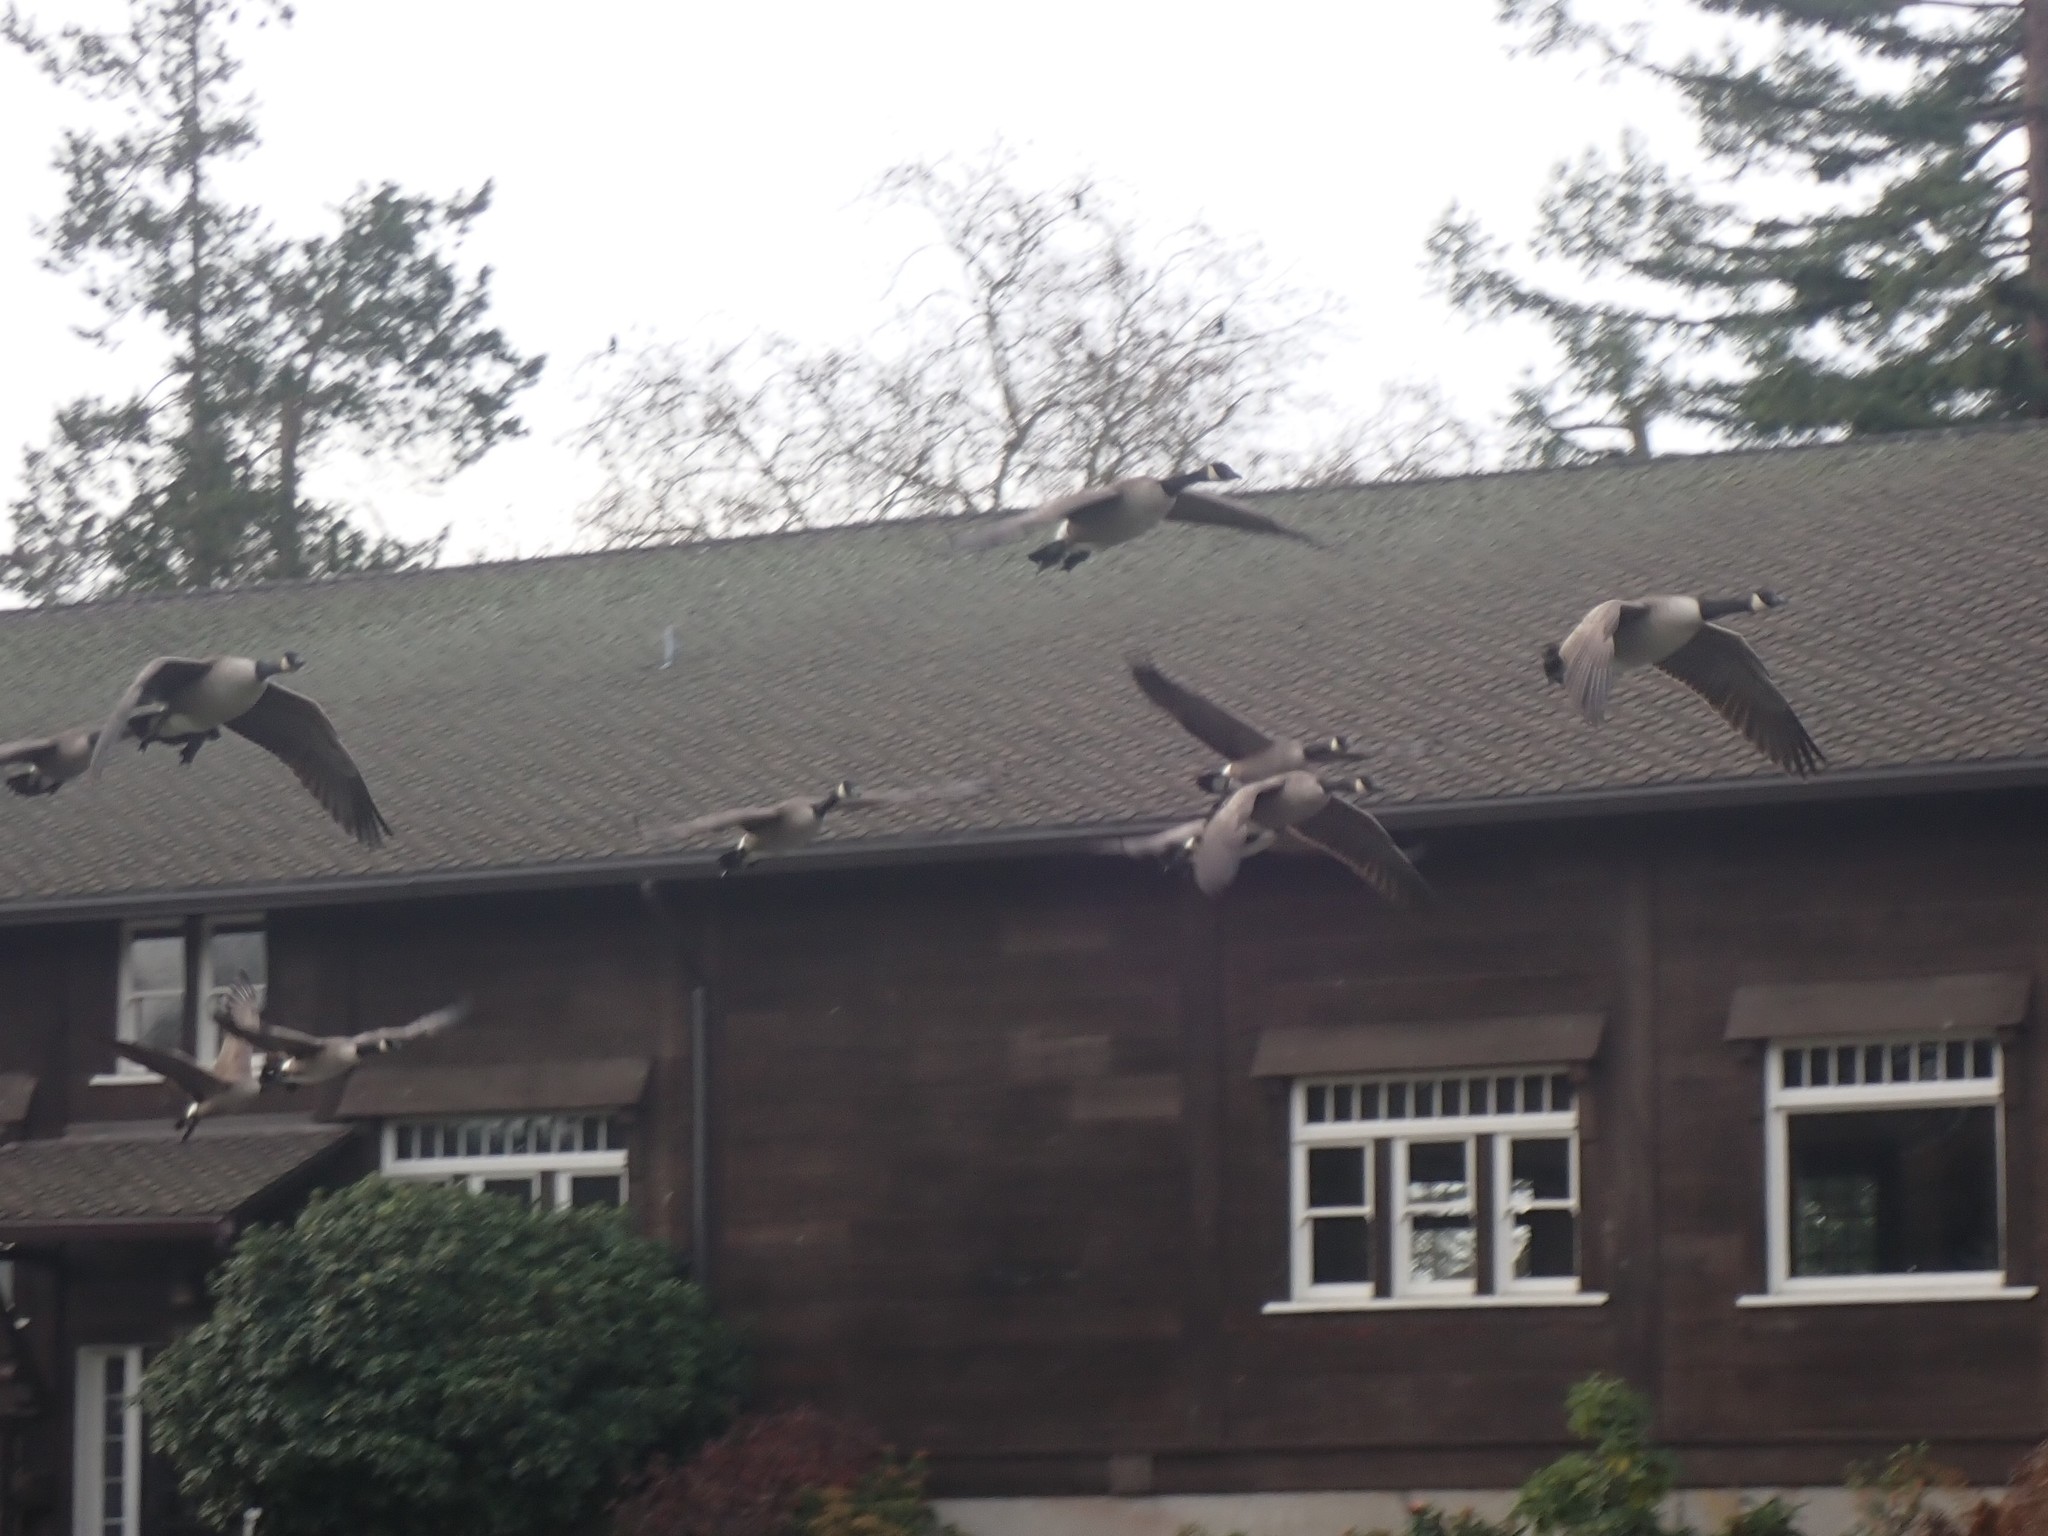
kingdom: Animalia
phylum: Chordata
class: Aves
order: Anseriformes
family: Anatidae
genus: Branta
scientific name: Branta canadensis
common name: Canada goose
